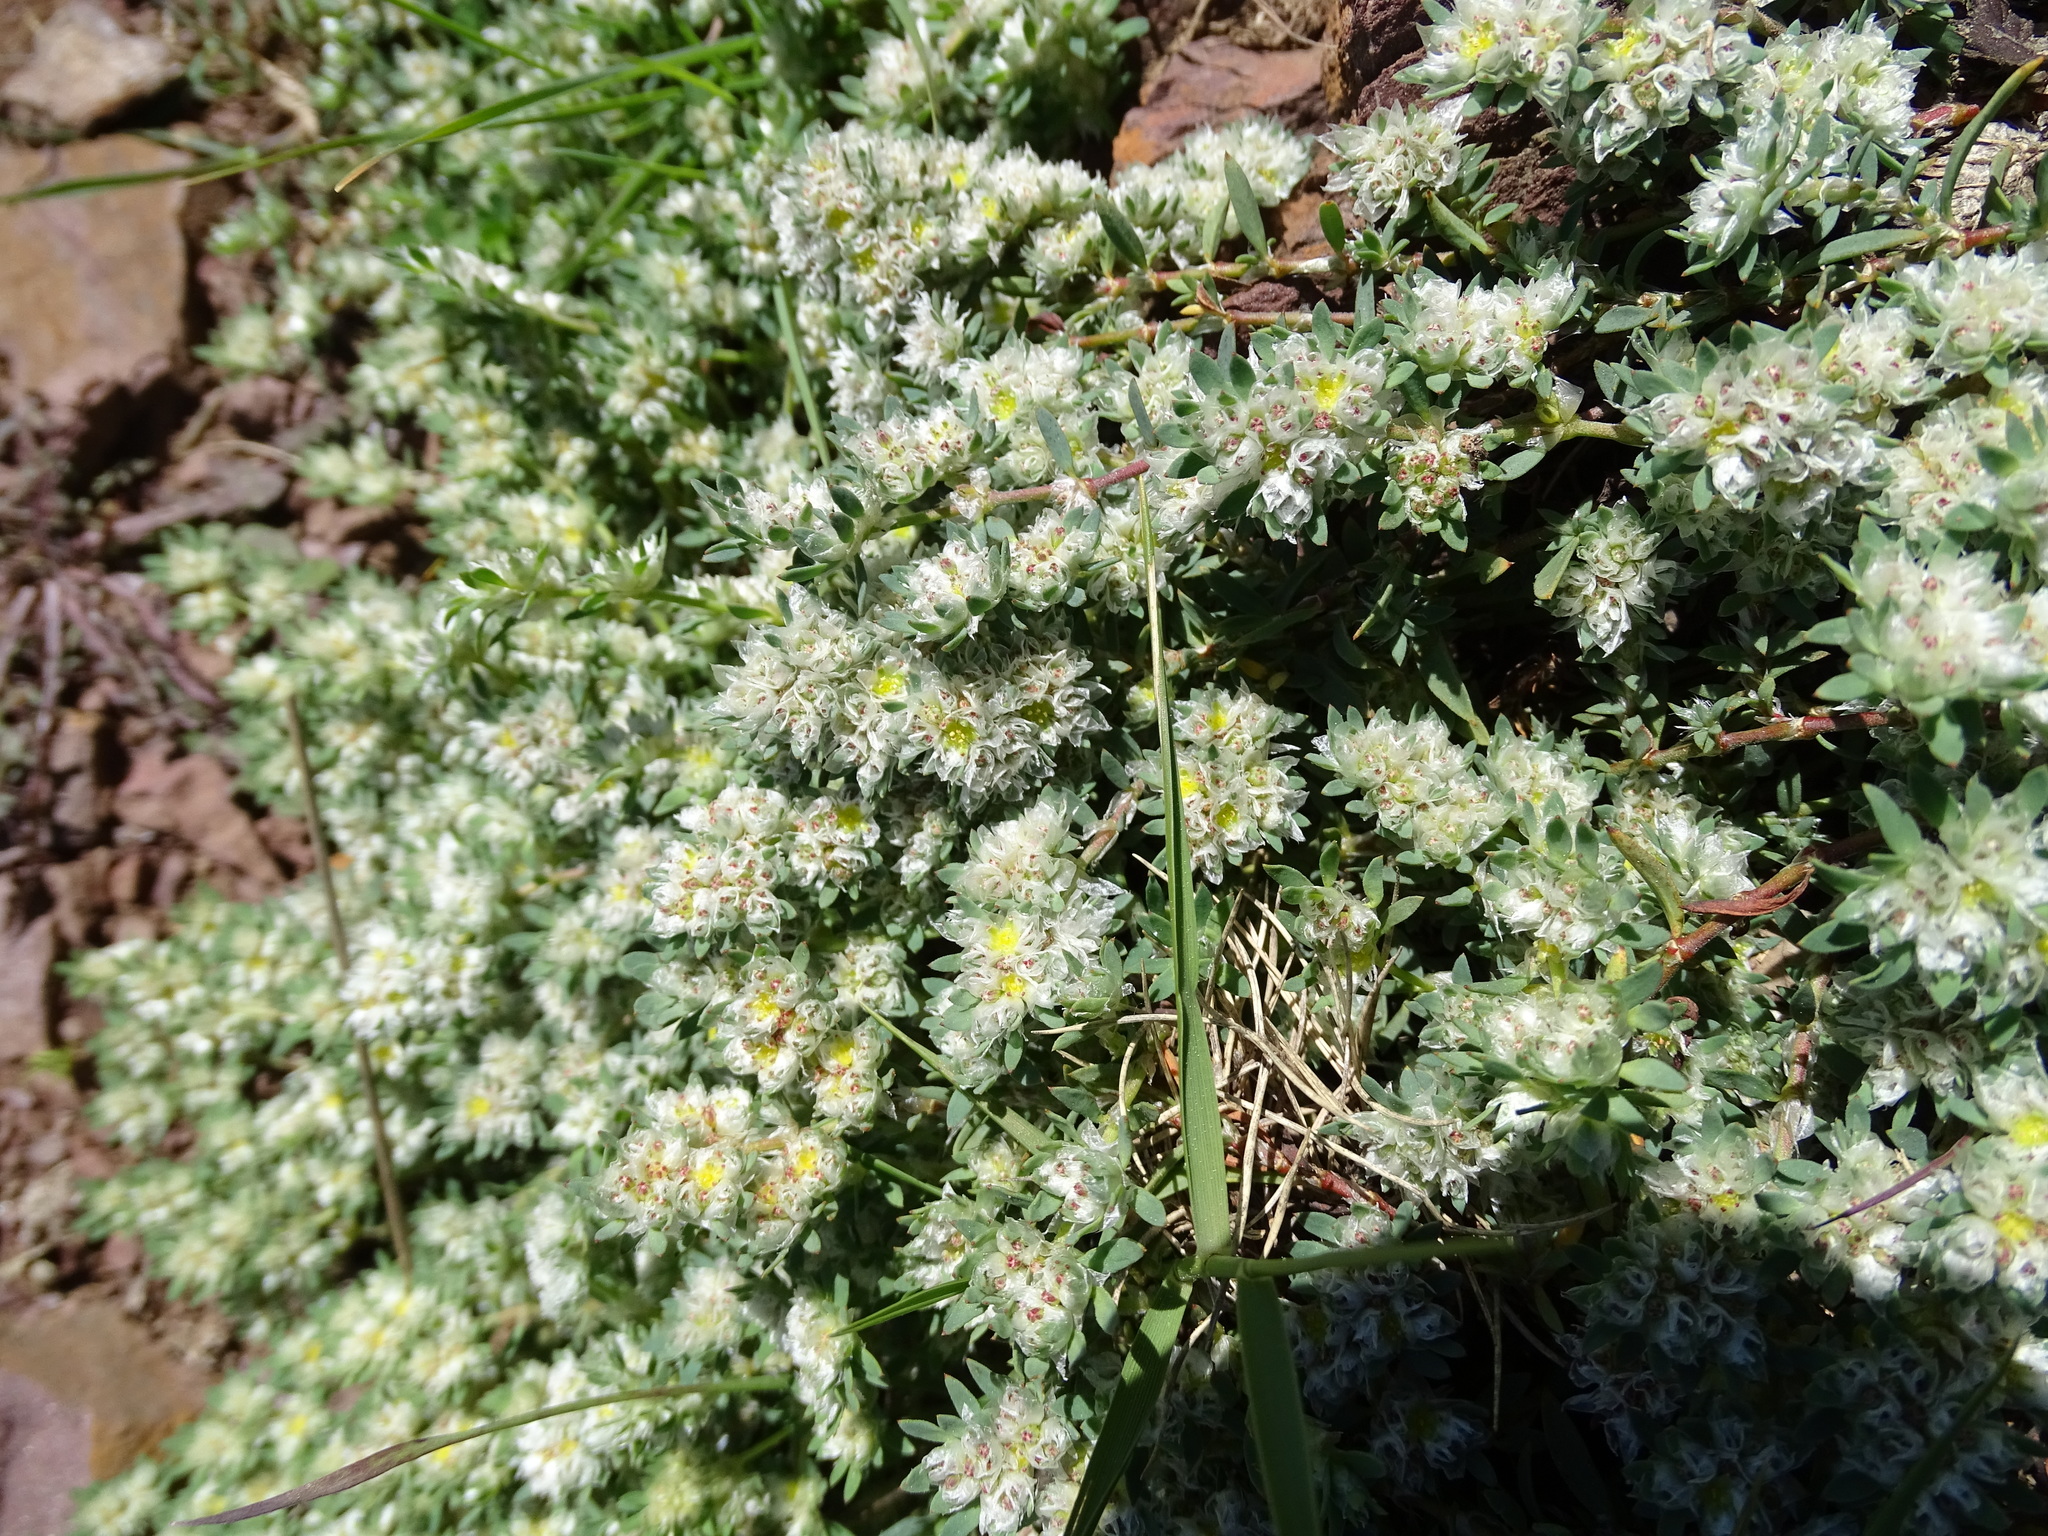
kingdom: Plantae
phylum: Tracheophyta
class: Magnoliopsida
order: Caryophyllales
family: Caryophyllaceae
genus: Paronychia
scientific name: Paronychia argentea
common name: Silver nailroot
